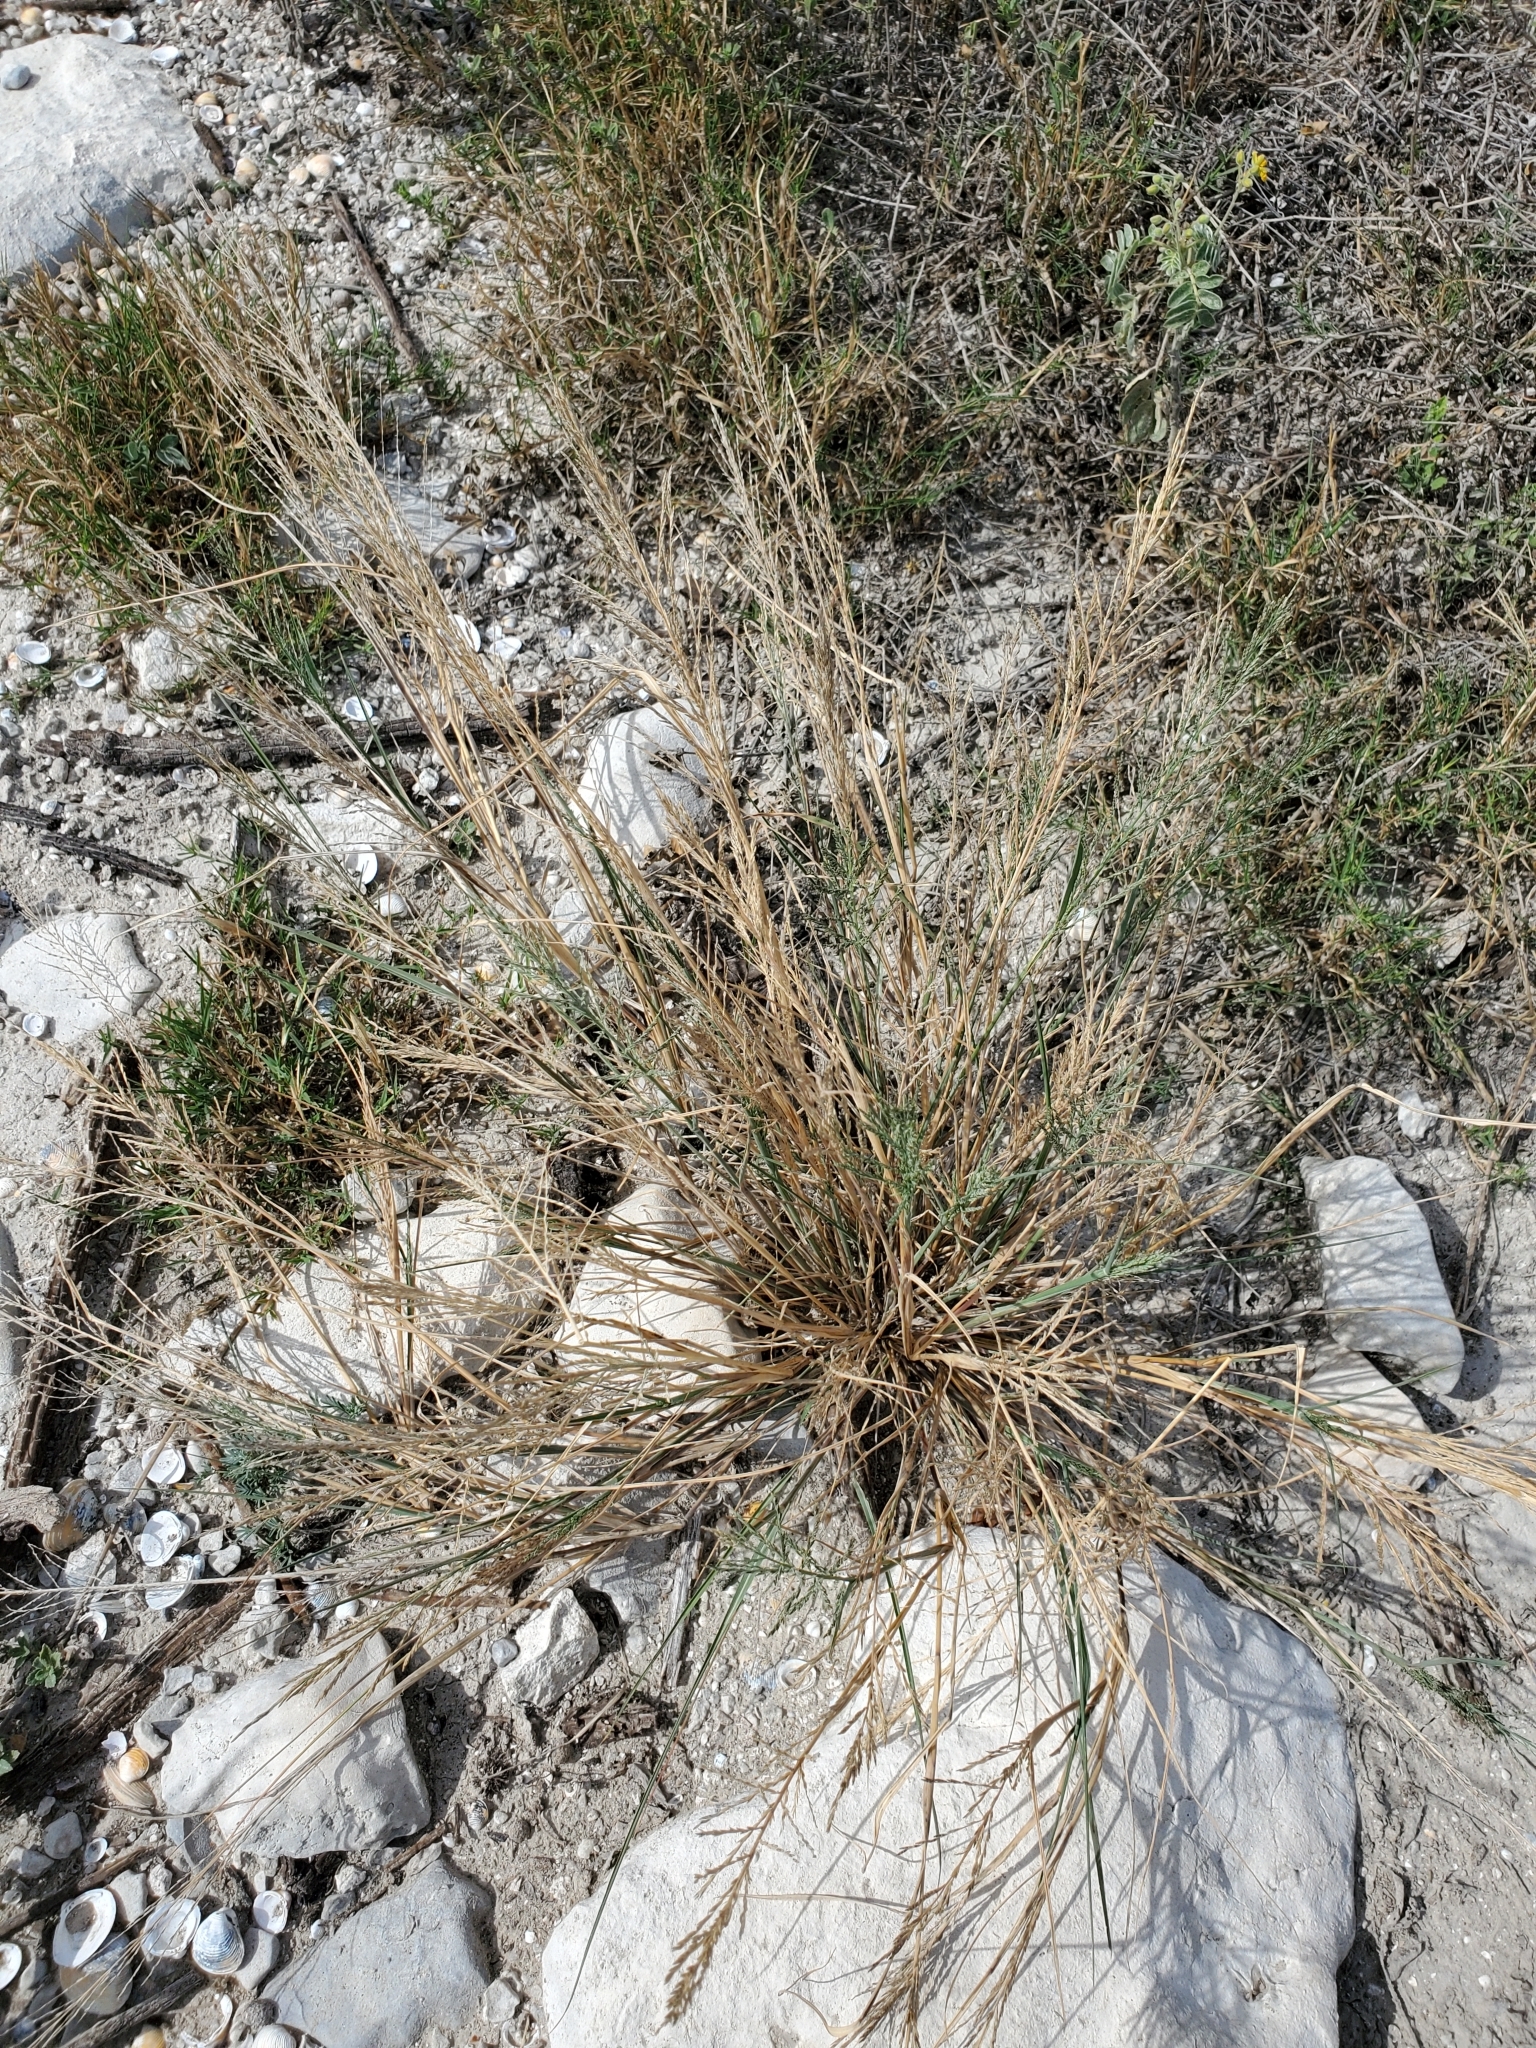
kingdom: Plantae
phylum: Tracheophyta
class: Liliopsida
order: Poales
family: Poaceae
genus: Disakisperma
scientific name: Disakisperma dubium
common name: Green sprangletop
